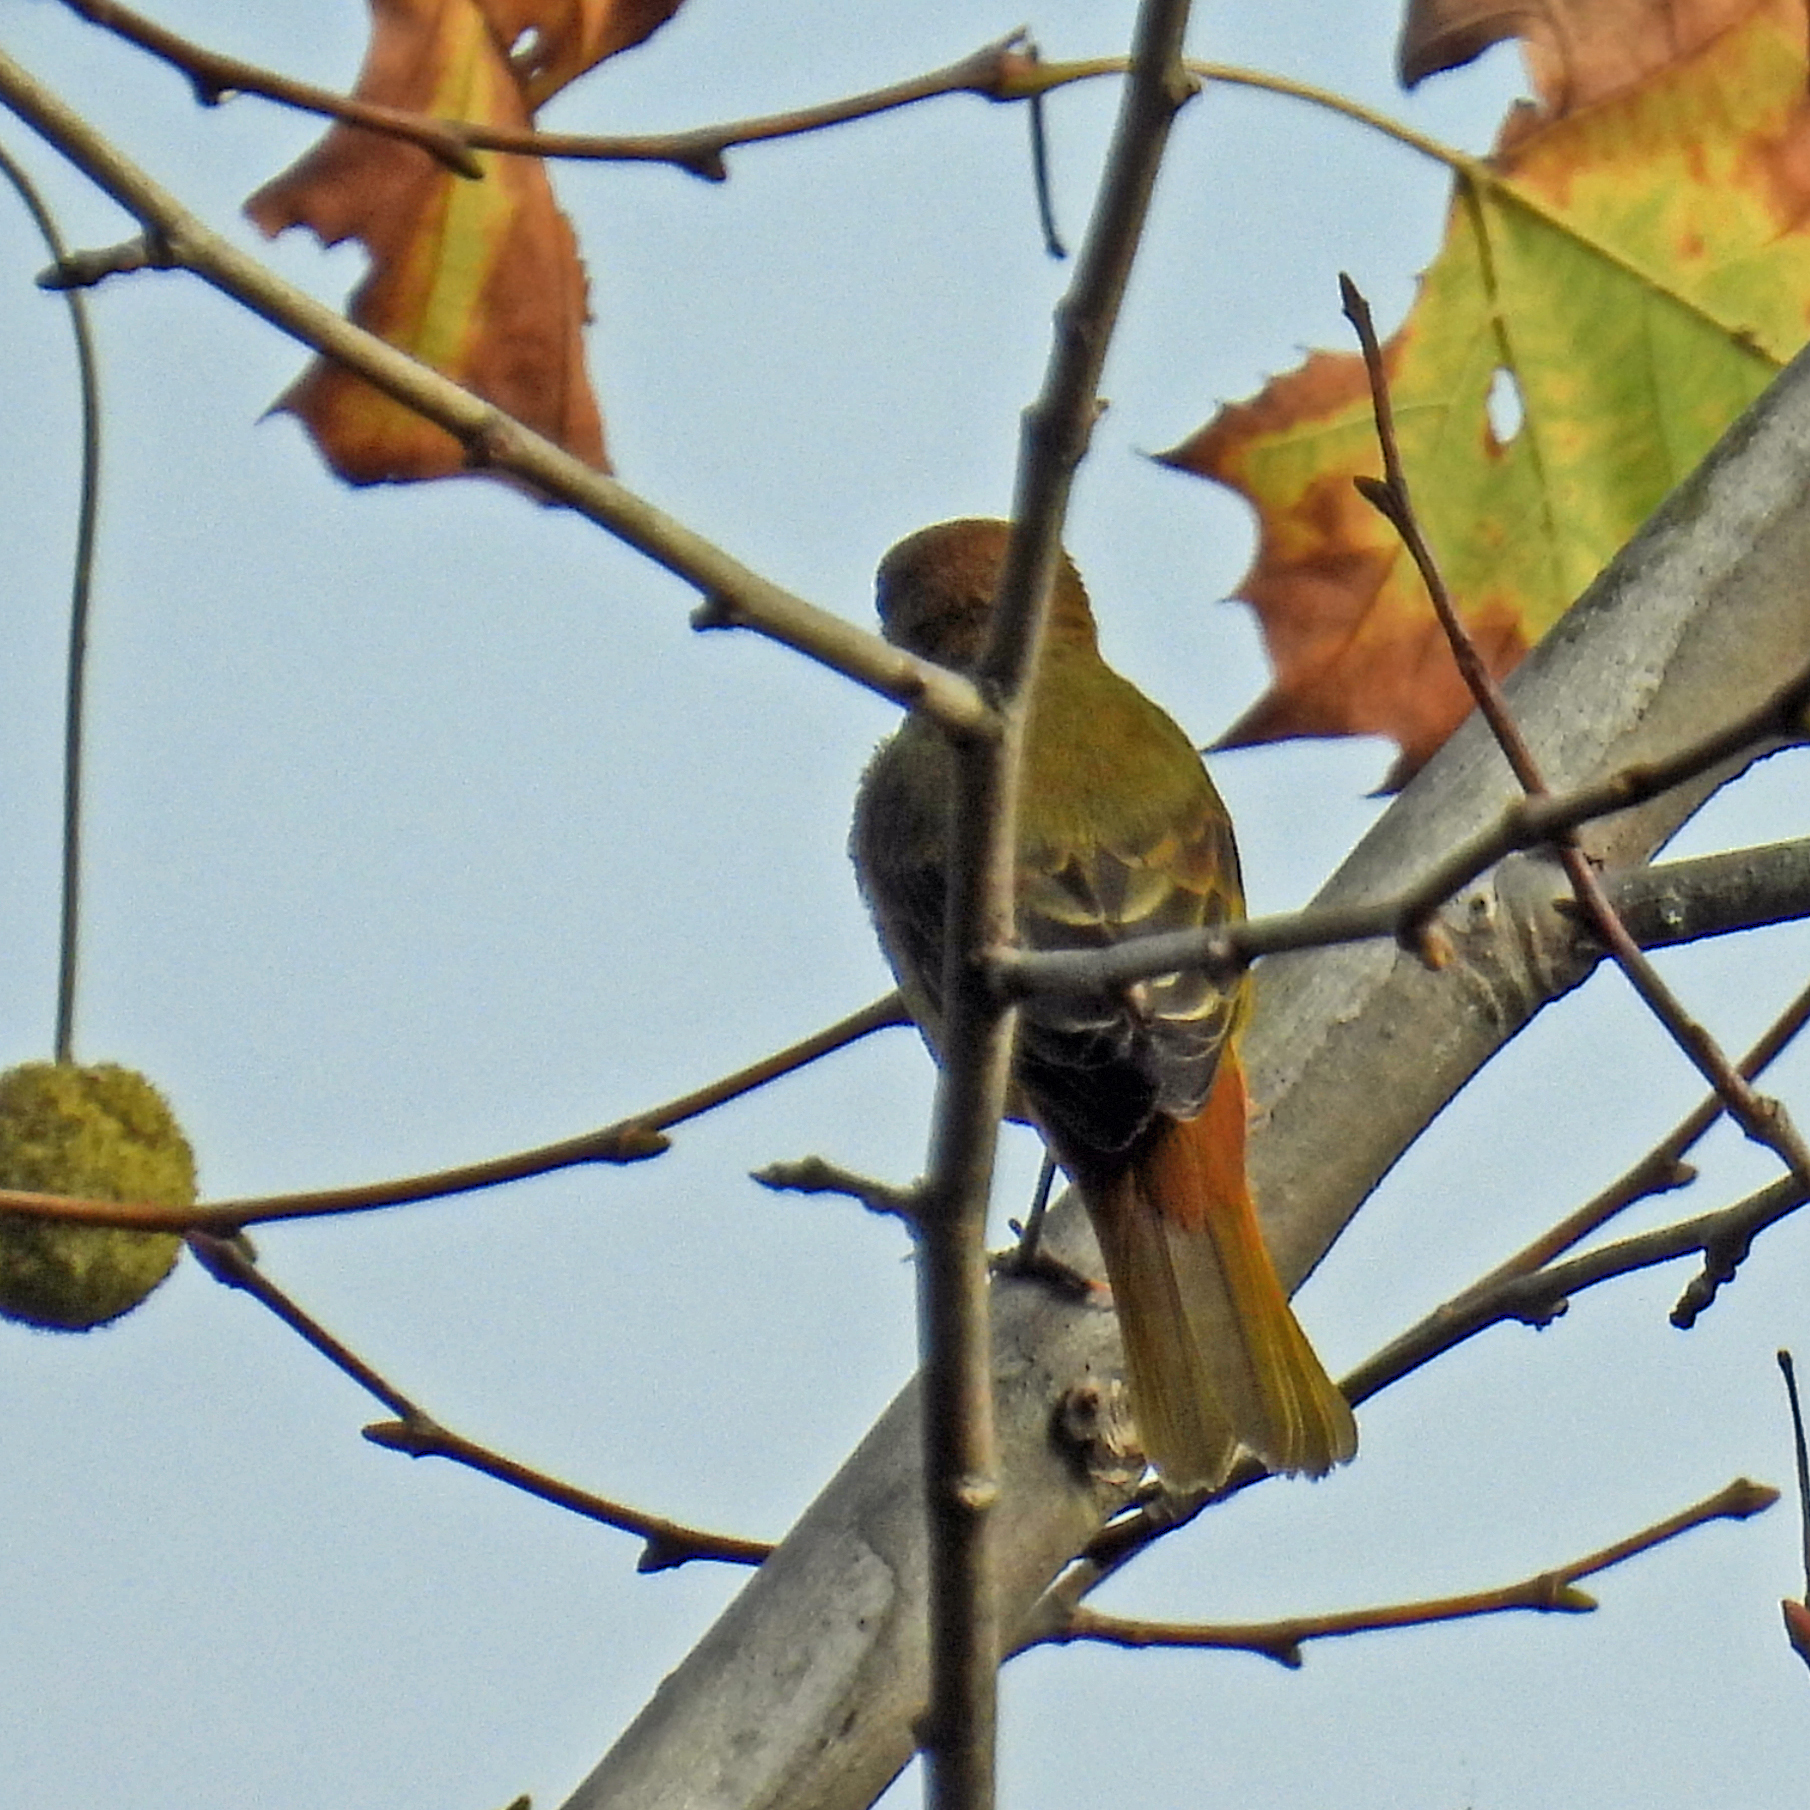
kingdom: Animalia
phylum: Chordata
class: Aves
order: Passeriformes
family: Cardinalidae
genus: Piranga
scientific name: Piranga rubra
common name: Summer tanager
